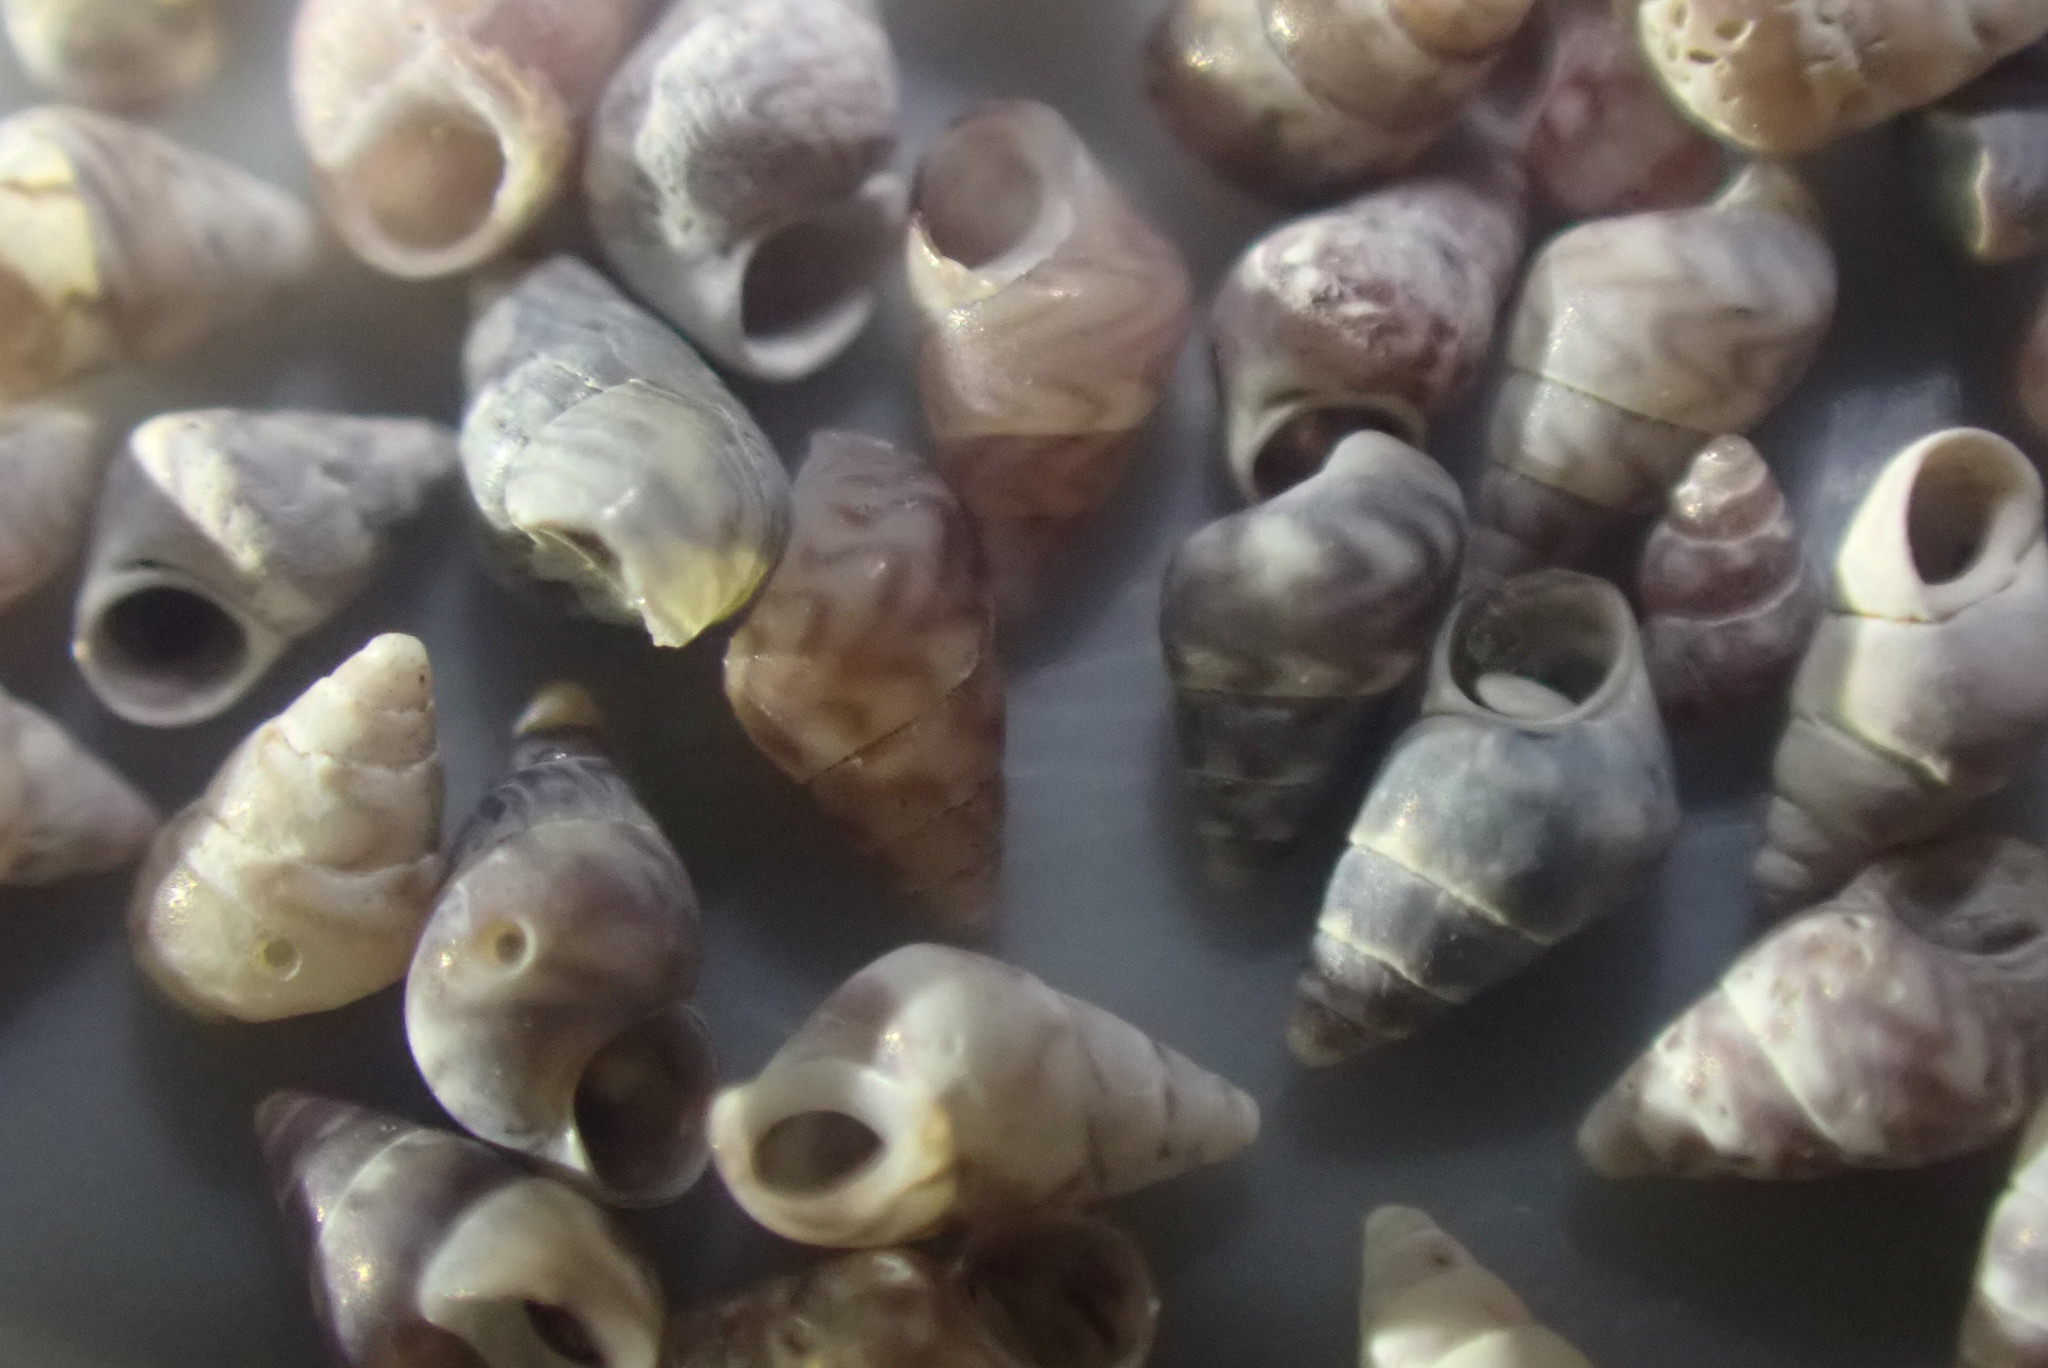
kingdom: Animalia
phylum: Mollusca
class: Gastropoda
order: Littorinimorpha
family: Eatoniellidae
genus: Eatoniella
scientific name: Eatoniella limbata
